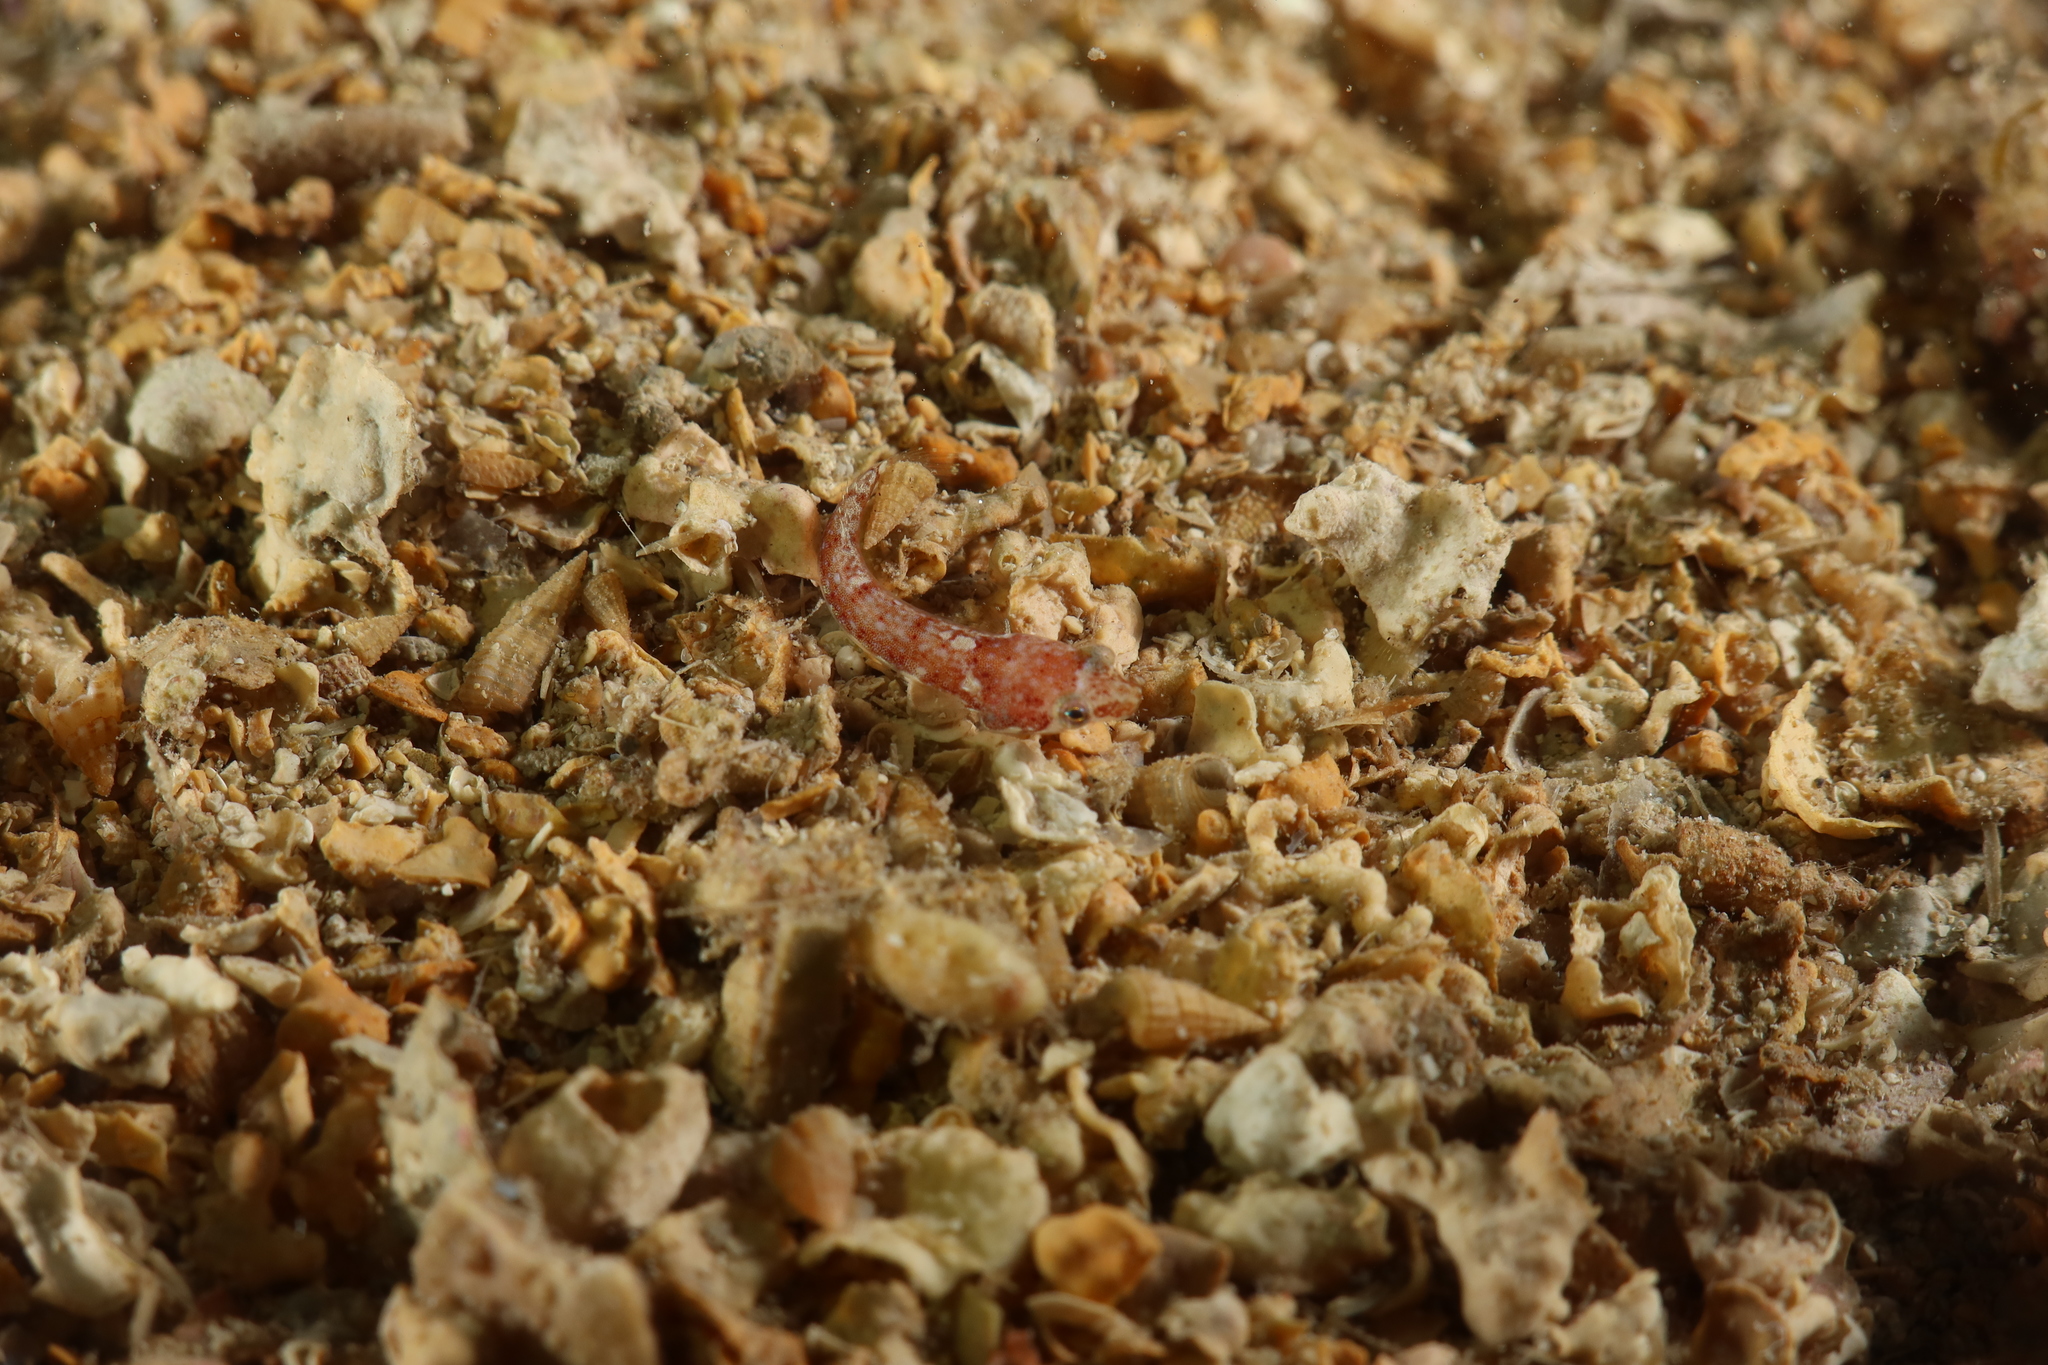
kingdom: Animalia
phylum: Chordata
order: Gobiesociformes
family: Gobiesocidae
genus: Diplecogaster
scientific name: Diplecogaster bimaculata
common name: Two-spotted clingfish
